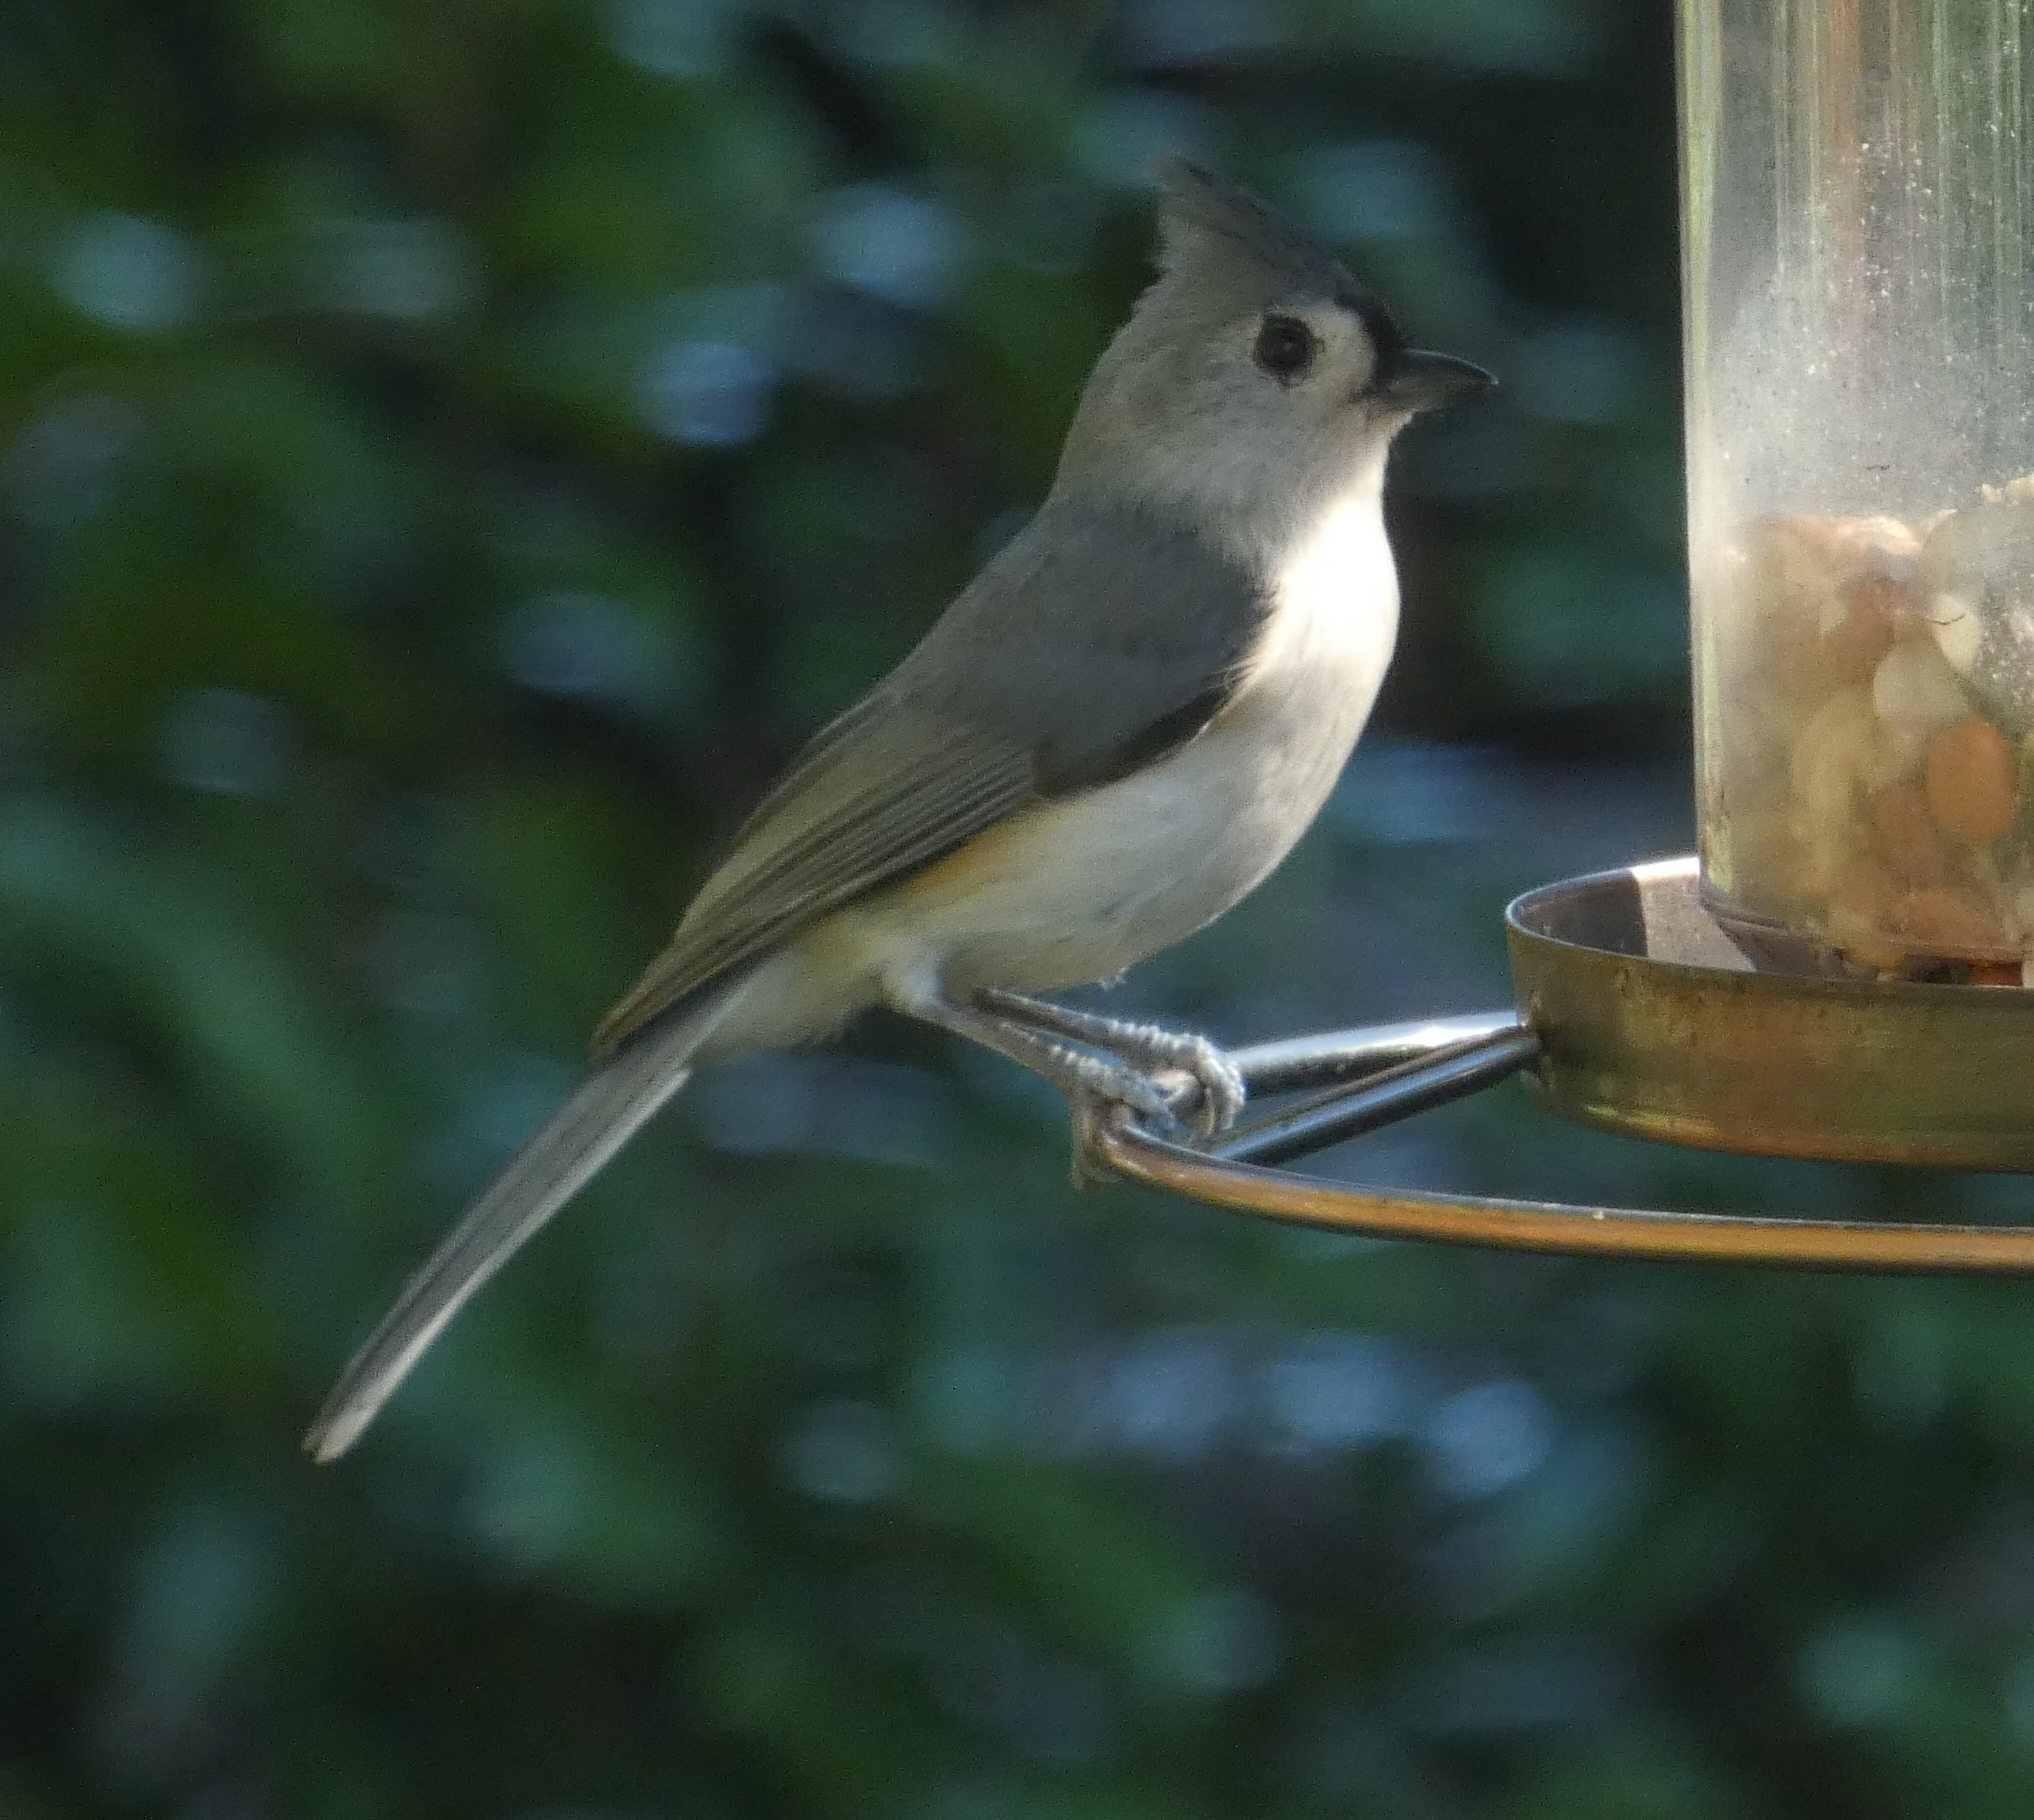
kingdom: Animalia
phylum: Chordata
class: Aves
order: Passeriformes
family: Paridae
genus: Baeolophus
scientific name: Baeolophus bicolor
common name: Tufted titmouse
